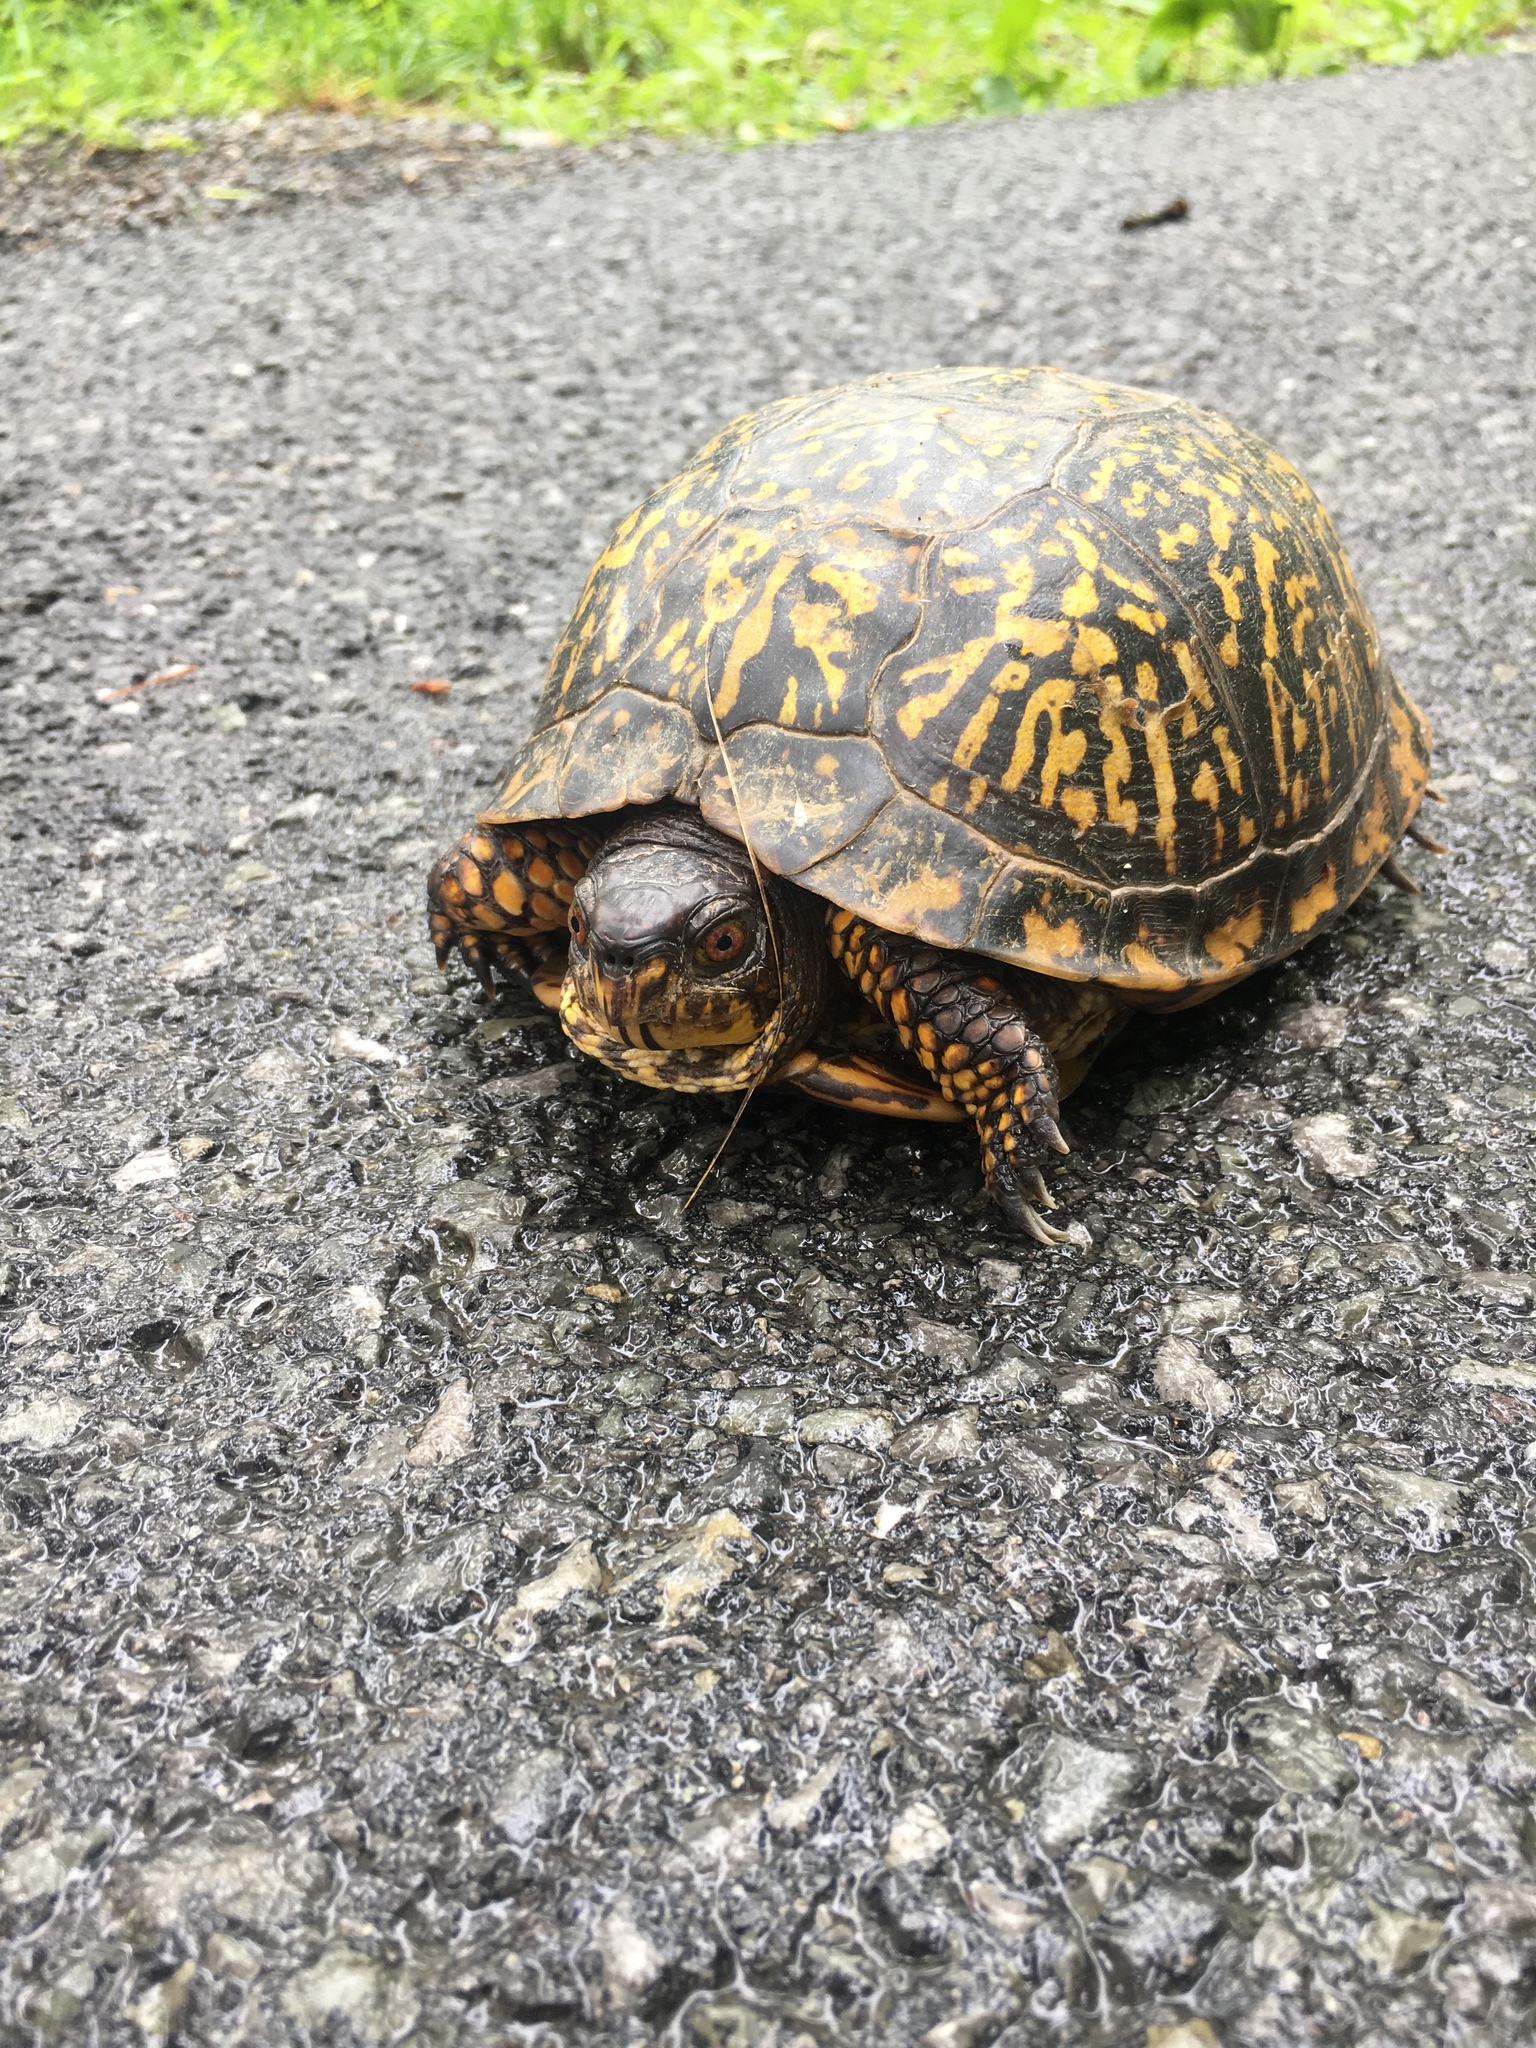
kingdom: Animalia
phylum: Chordata
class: Testudines
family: Emydidae
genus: Terrapene
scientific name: Terrapene carolina
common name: Common box turtle
